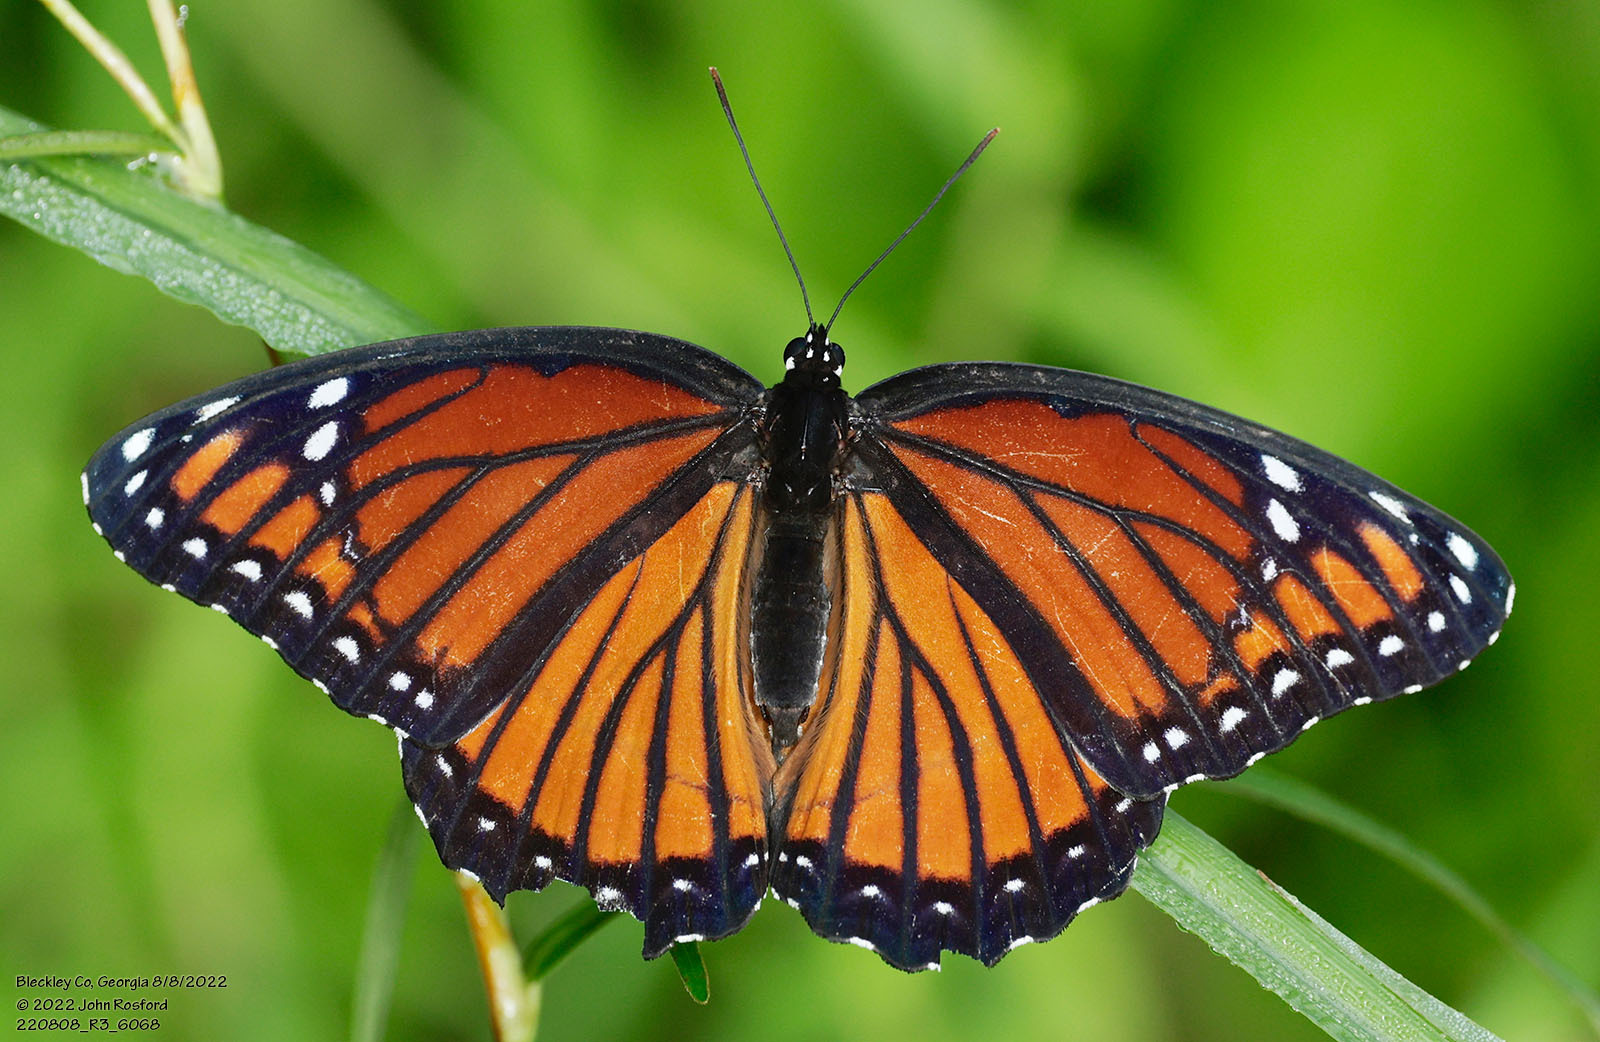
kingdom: Animalia
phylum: Arthropoda
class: Insecta
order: Lepidoptera
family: Nymphalidae
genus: Limenitis
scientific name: Limenitis archippus
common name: Viceroy
